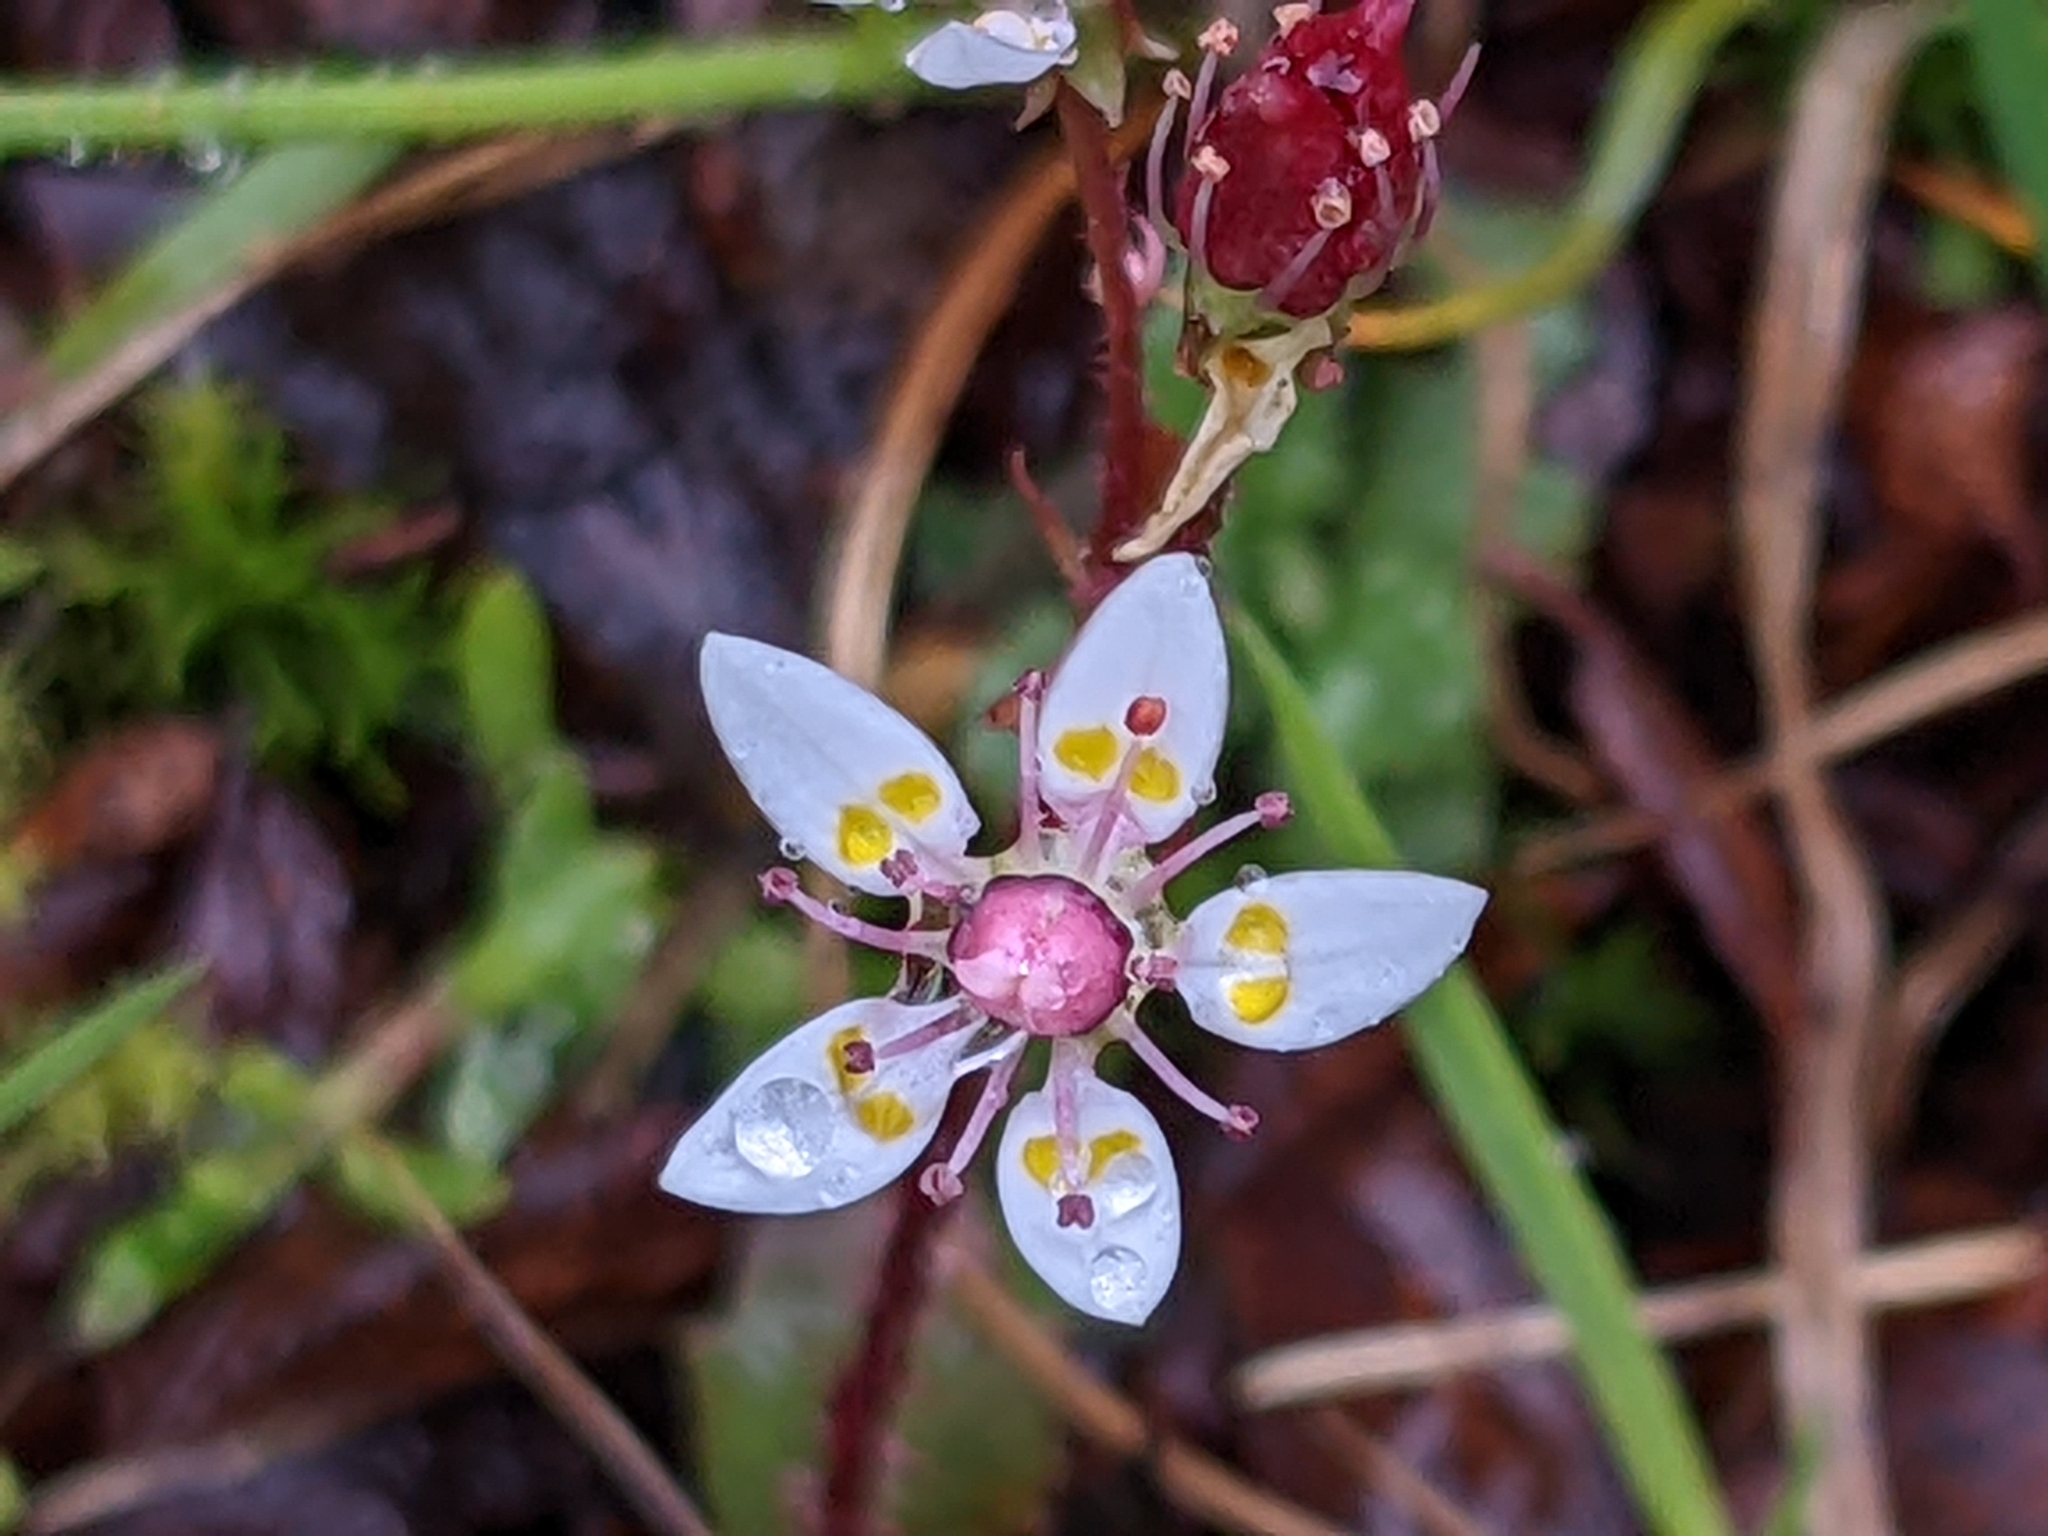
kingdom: Plantae
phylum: Tracheophyta
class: Magnoliopsida
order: Saxifragales
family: Saxifragaceae
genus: Micranthes
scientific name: Micranthes stellaris
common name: Starry saxifrage
